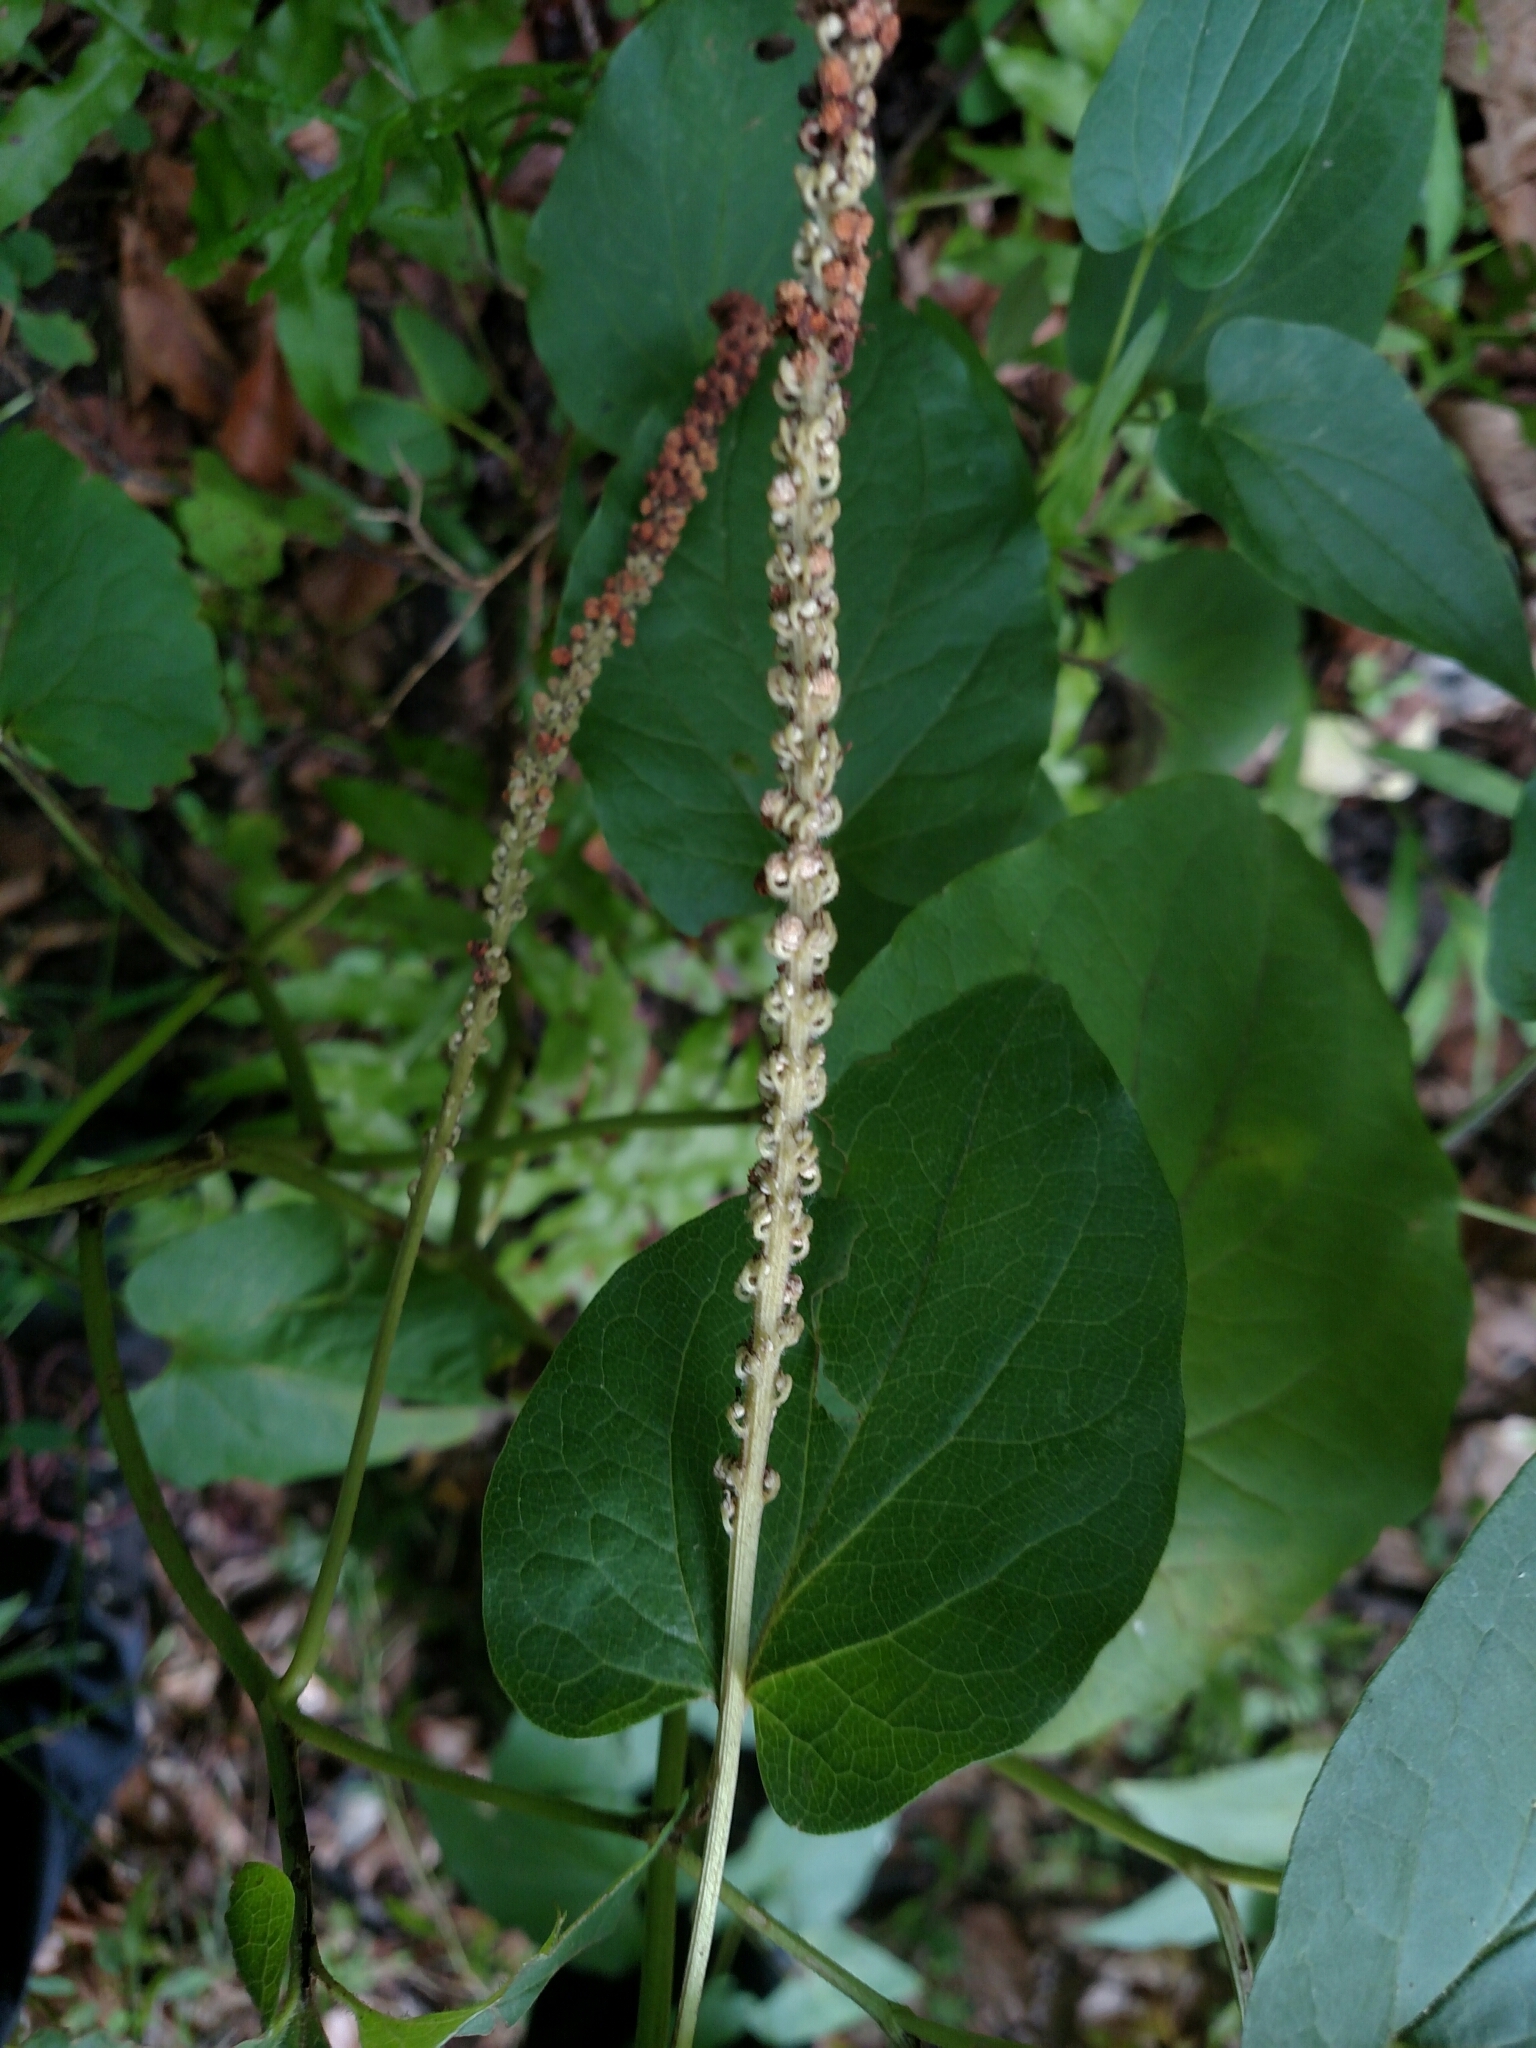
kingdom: Plantae
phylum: Tracheophyta
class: Magnoliopsida
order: Piperales
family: Saururaceae
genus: Saururus
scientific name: Saururus cernuus
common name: Lizard's-tail
